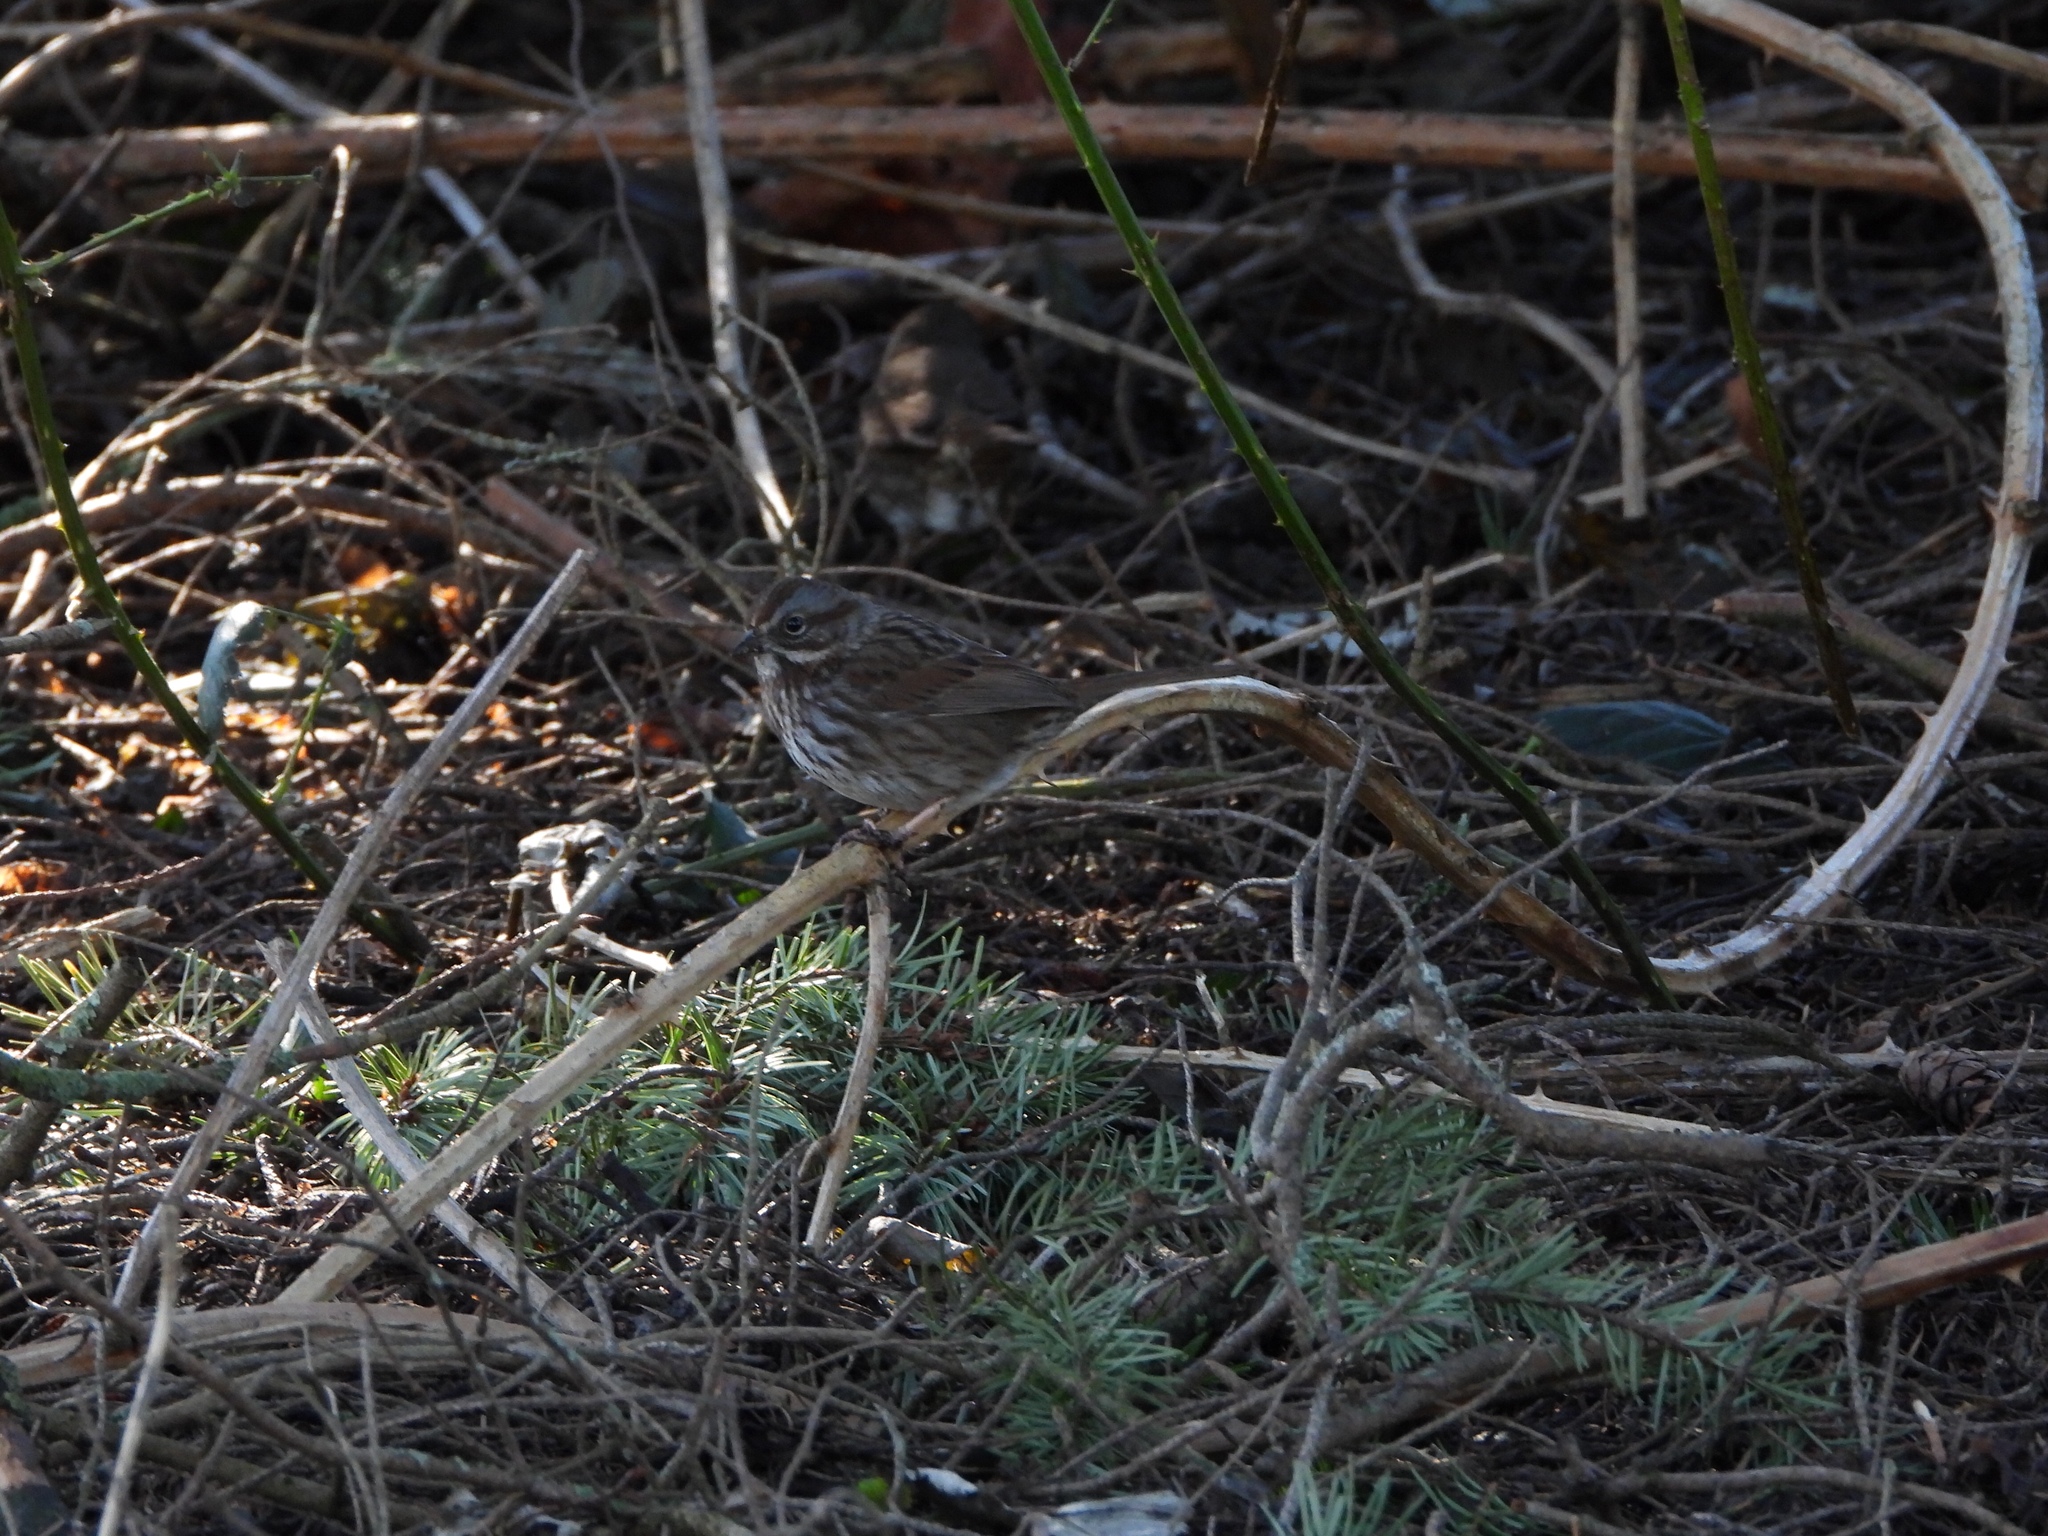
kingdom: Animalia
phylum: Chordata
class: Aves
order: Passeriformes
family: Passerellidae
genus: Melospiza
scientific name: Melospiza melodia
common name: Song sparrow
